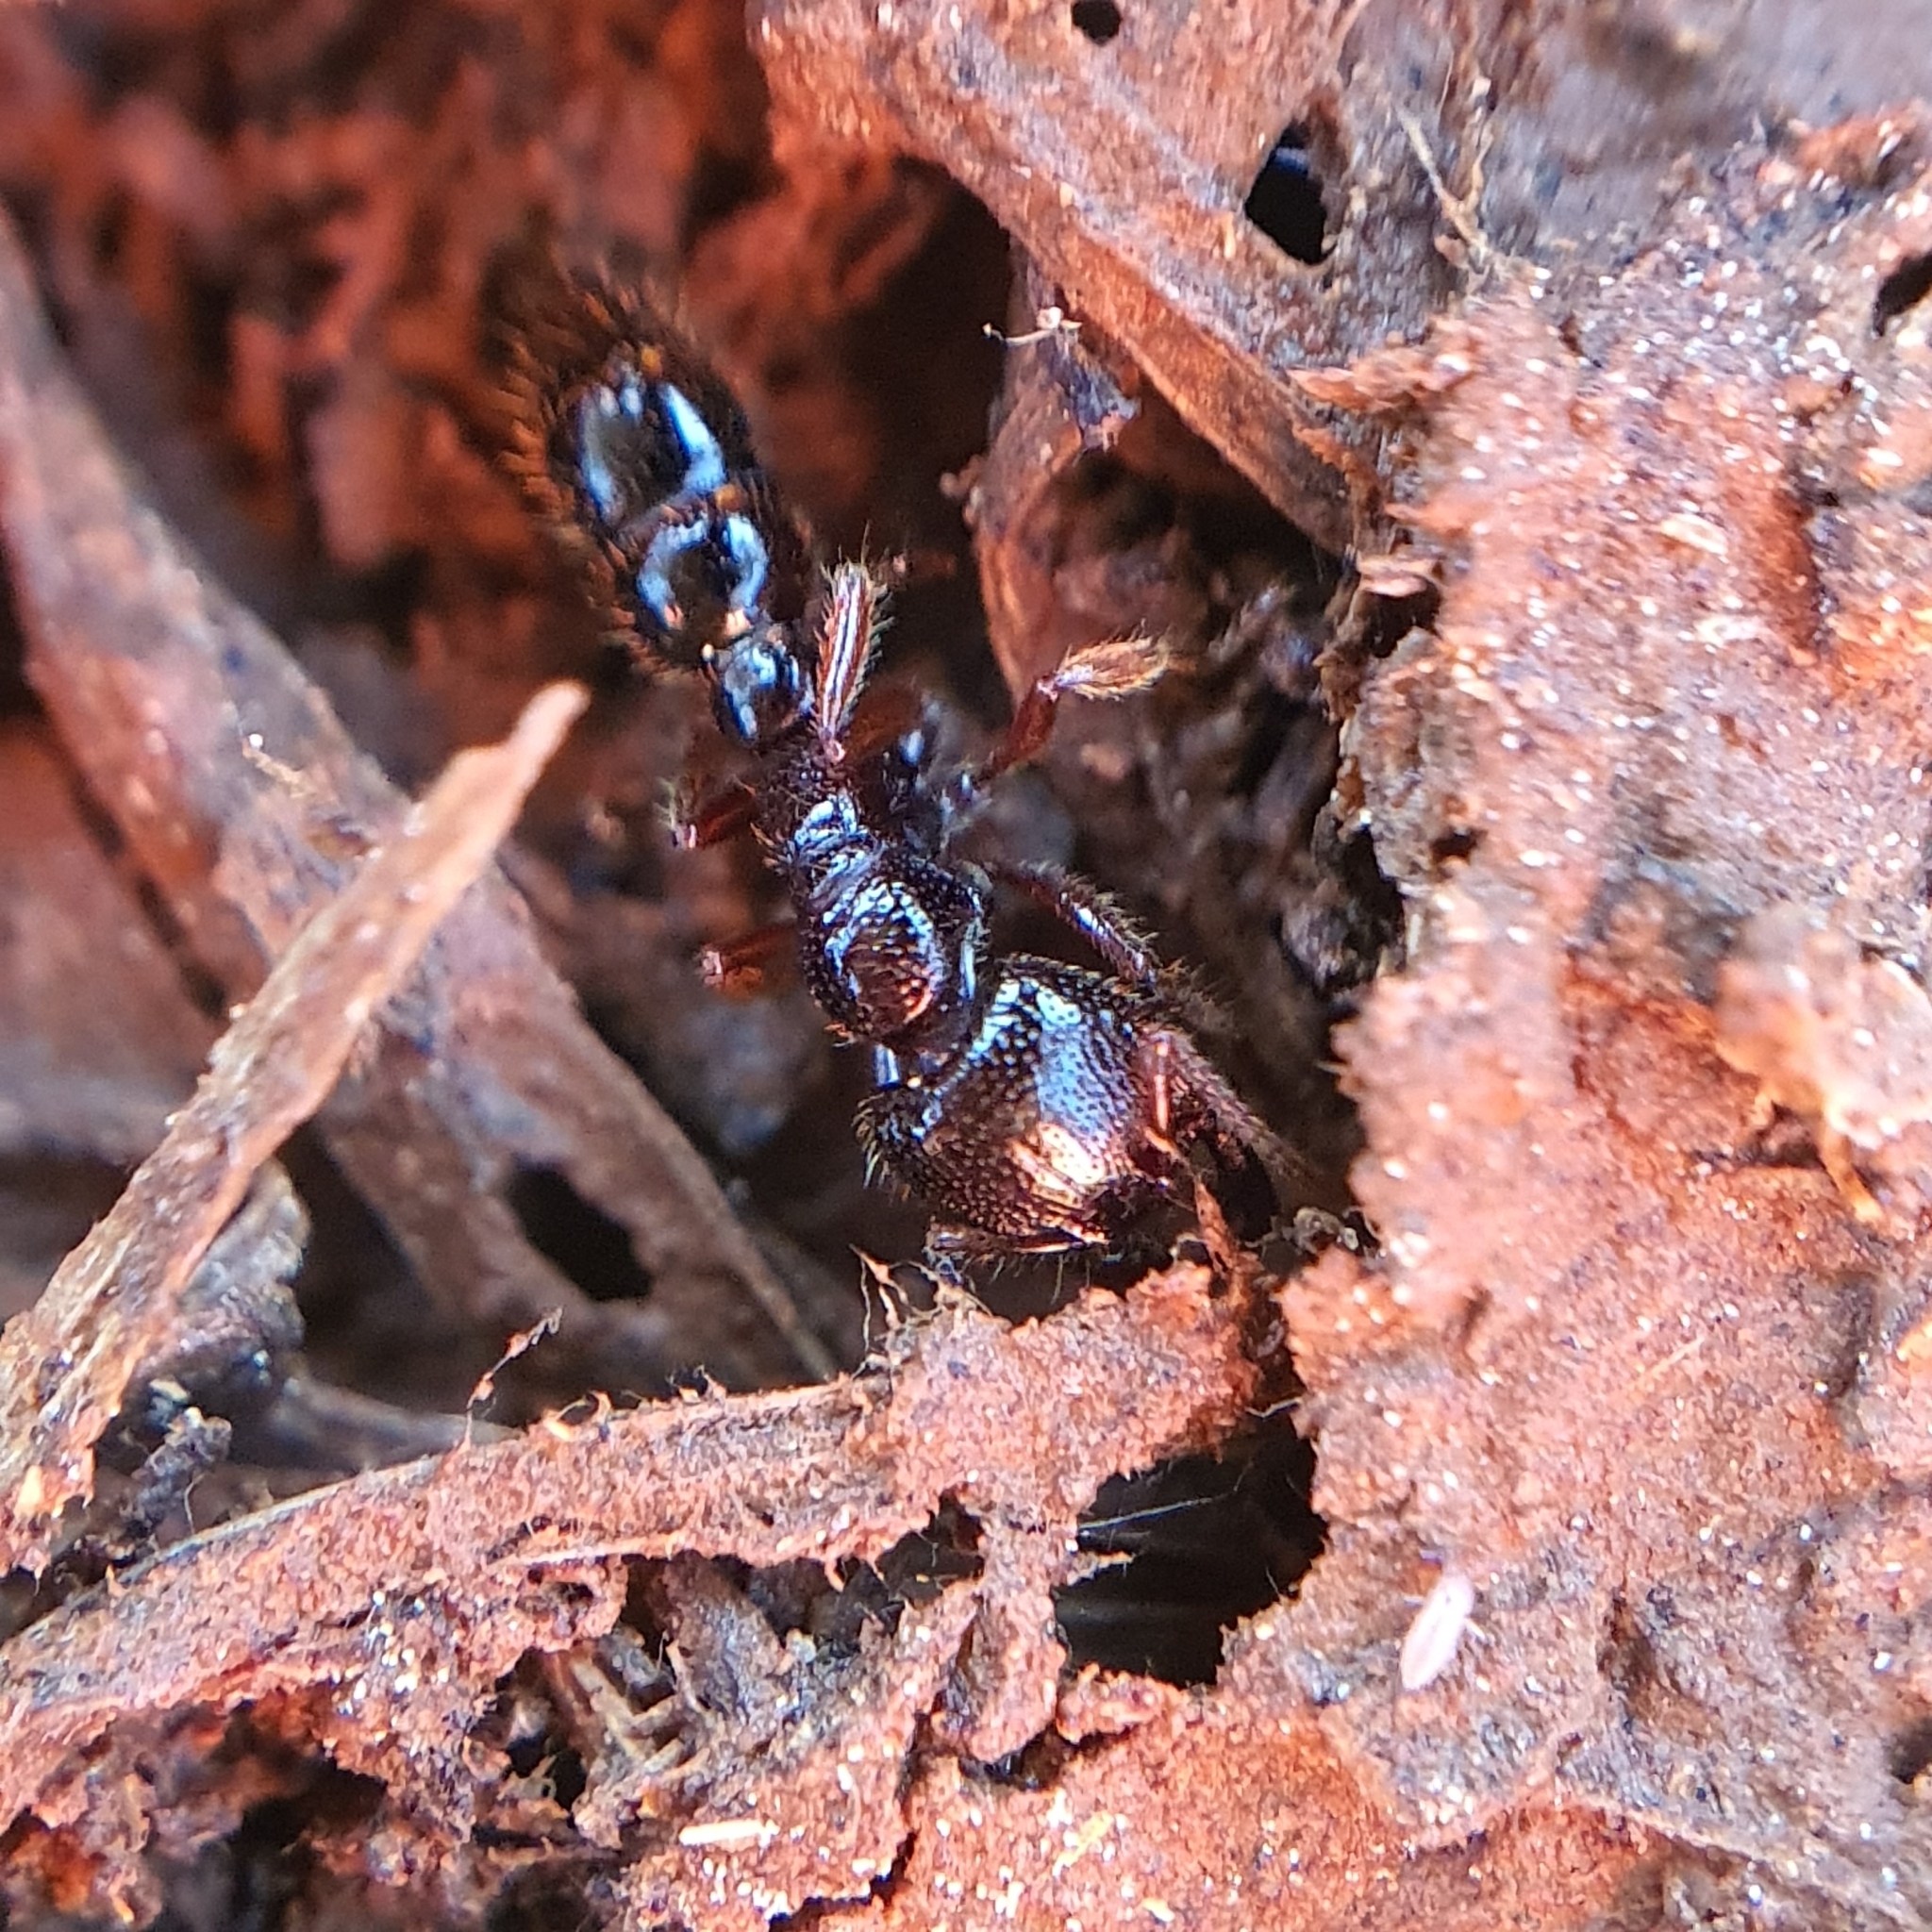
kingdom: Animalia
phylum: Arthropoda
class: Insecta
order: Hymenoptera
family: Formicidae
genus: Amblyopone
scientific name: Amblyopone australis
